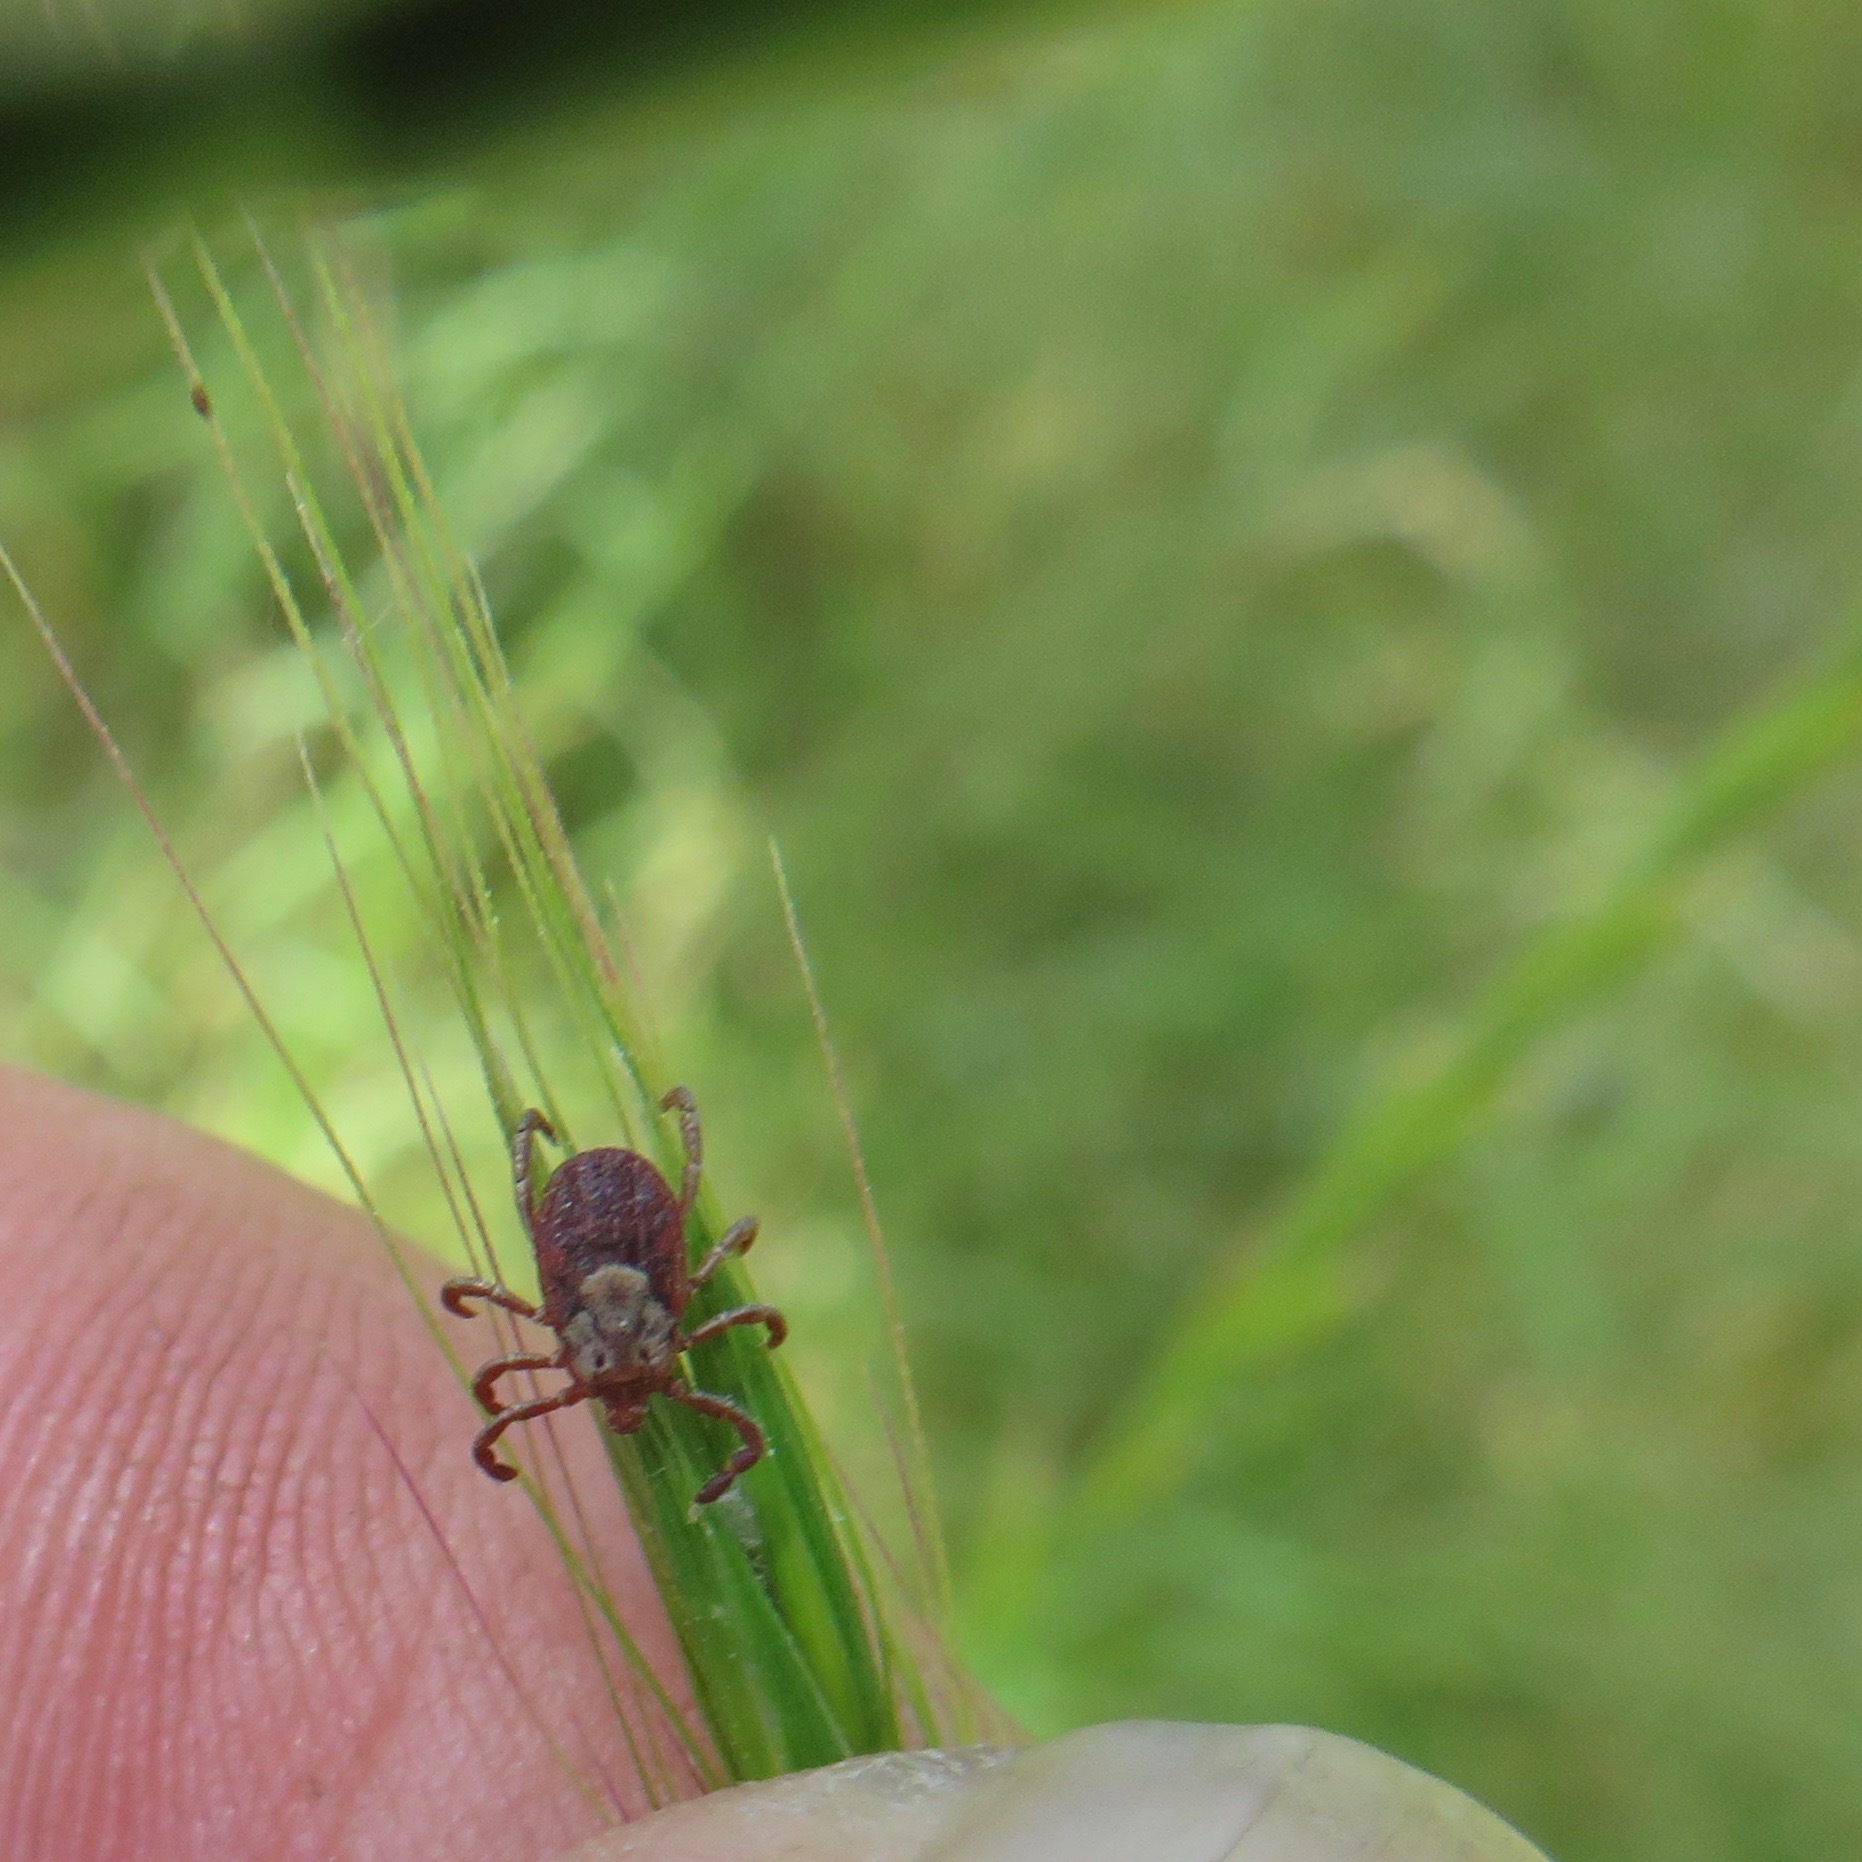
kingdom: Animalia
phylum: Arthropoda
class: Arachnida
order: Ixodida
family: Ixodidae
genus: Dermacentor
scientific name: Dermacentor occidentalis
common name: Net tick
